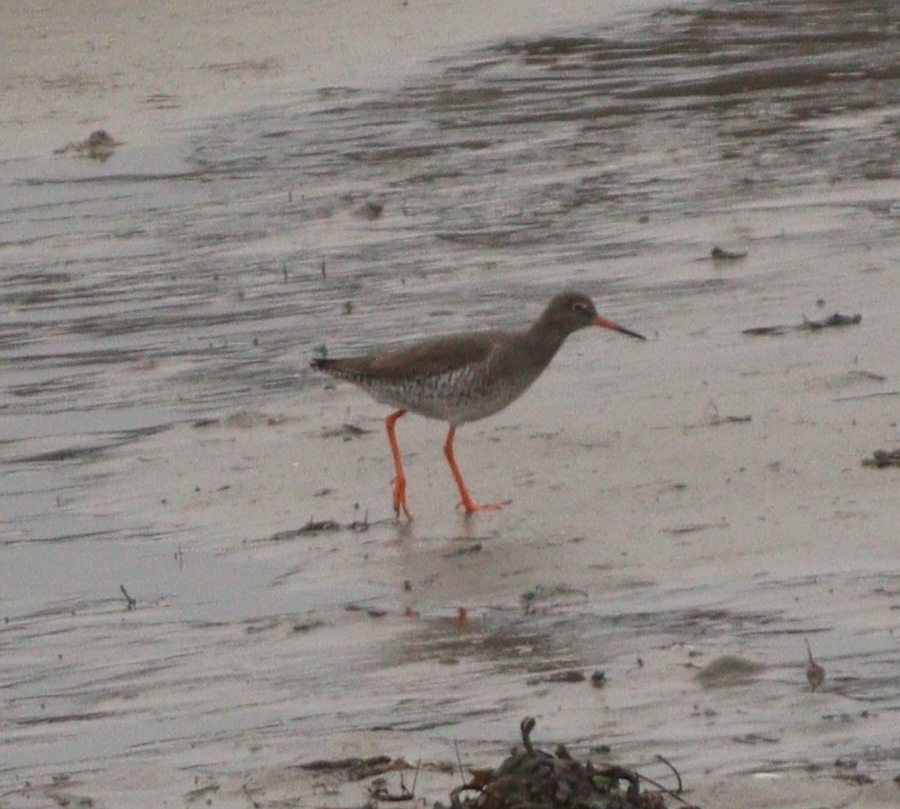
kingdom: Animalia
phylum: Chordata
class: Aves
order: Charadriiformes
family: Scolopacidae
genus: Tringa
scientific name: Tringa totanus
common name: Common redshank
